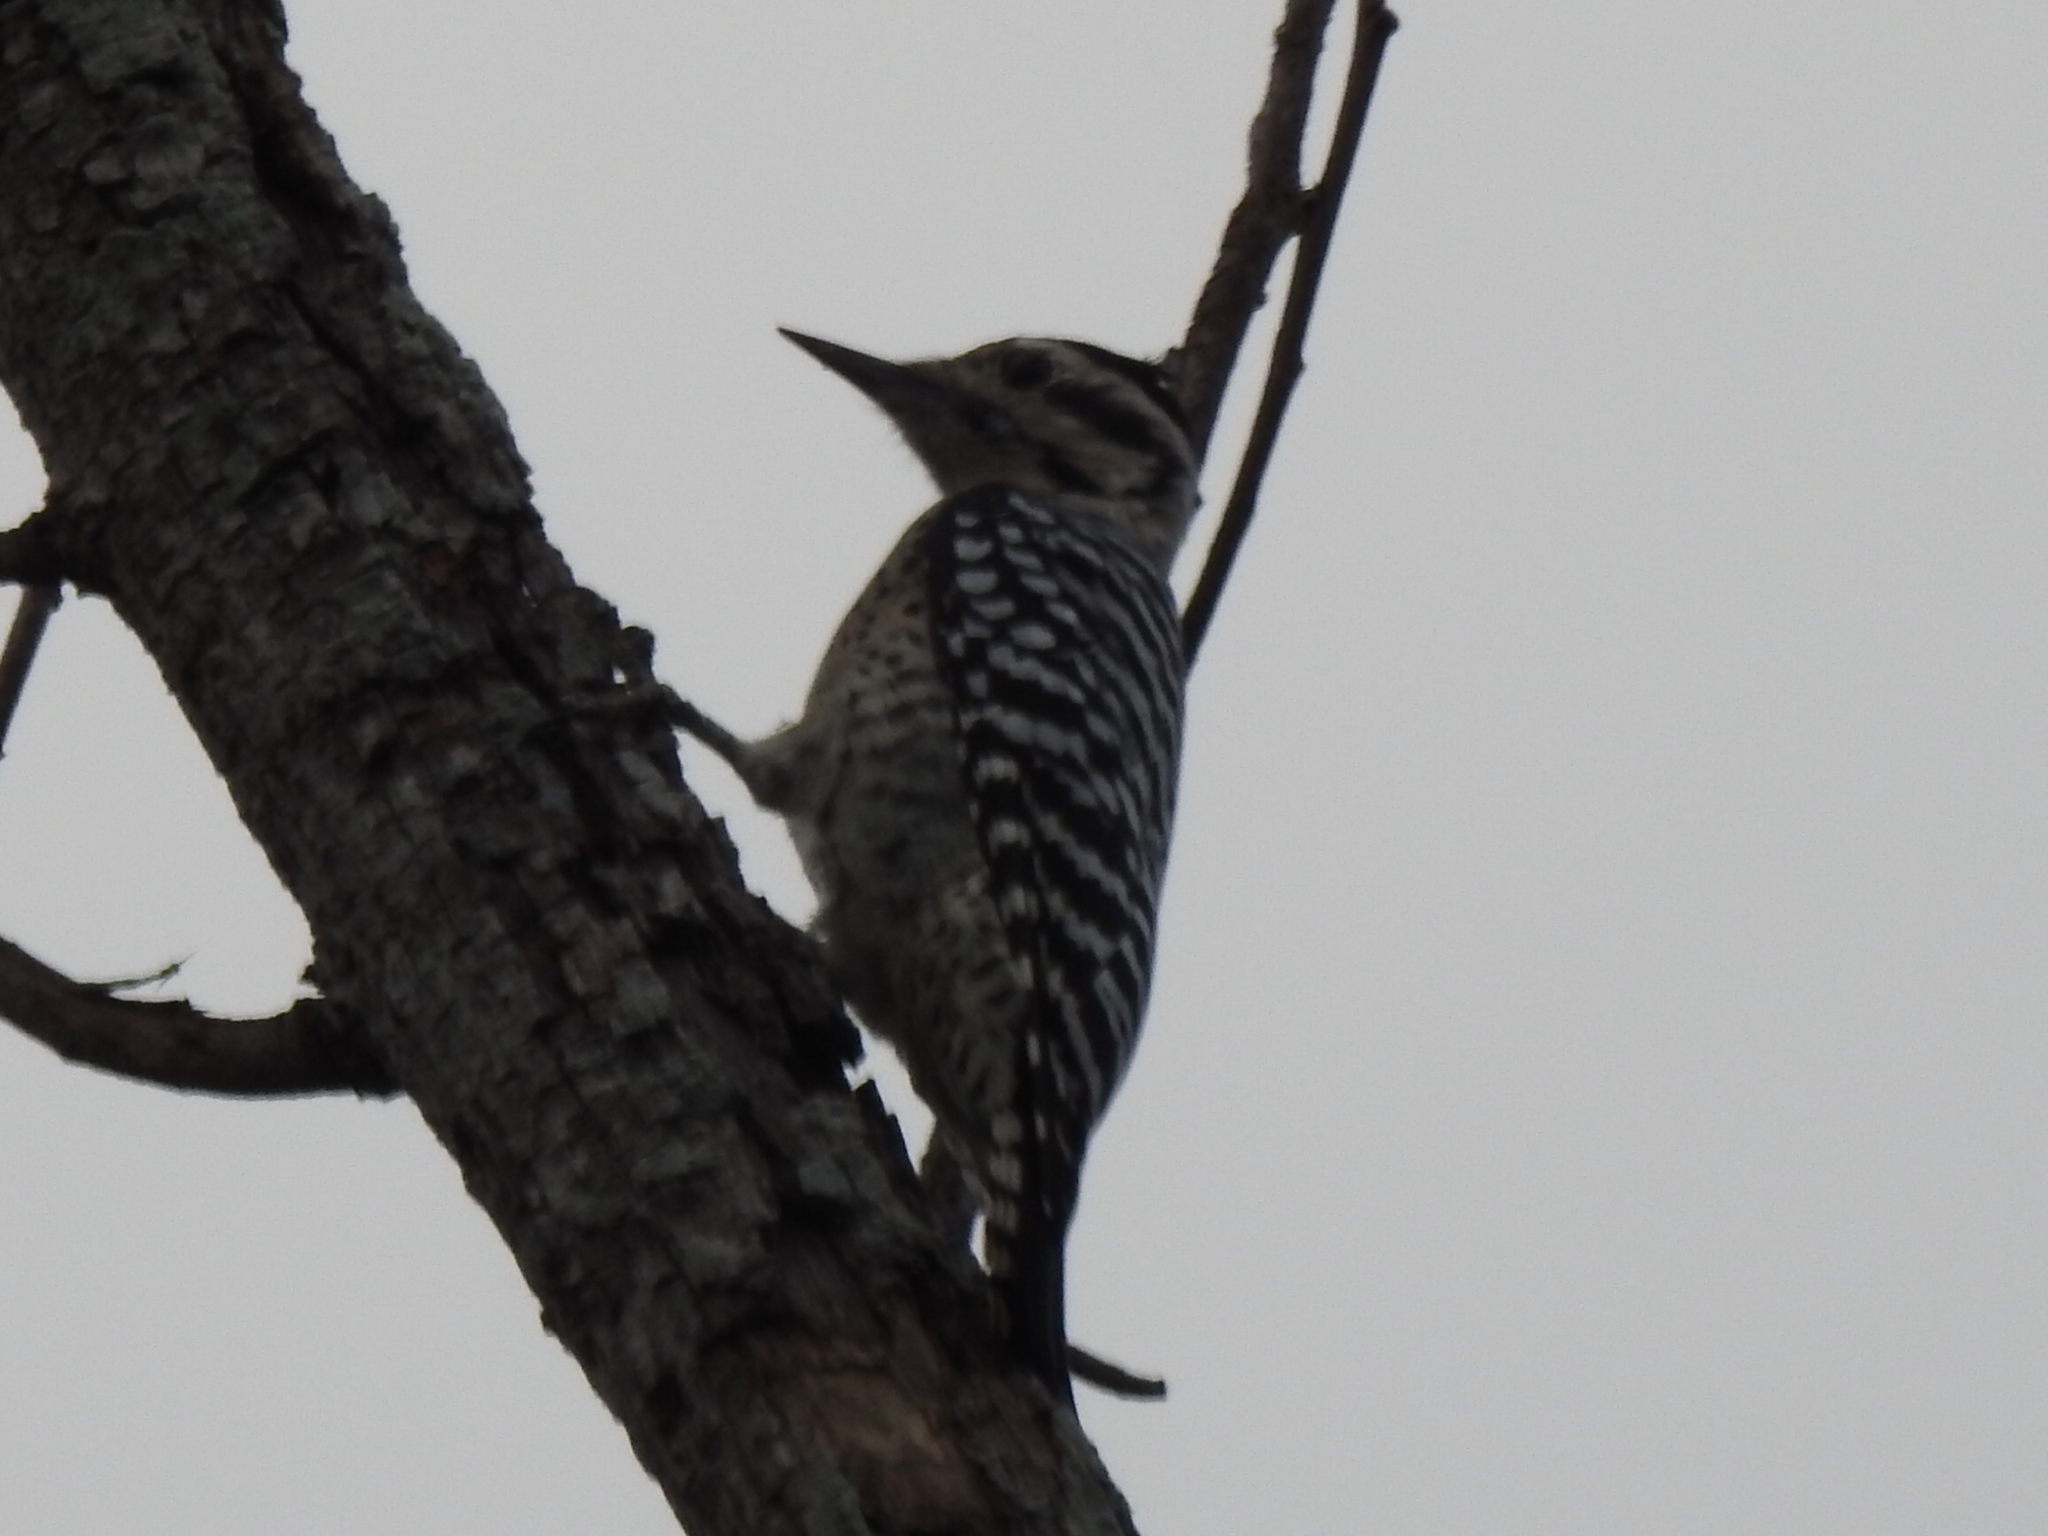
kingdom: Animalia
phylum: Chordata
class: Aves
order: Piciformes
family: Picidae
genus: Dryobates
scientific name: Dryobates scalaris
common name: Ladder-backed woodpecker
